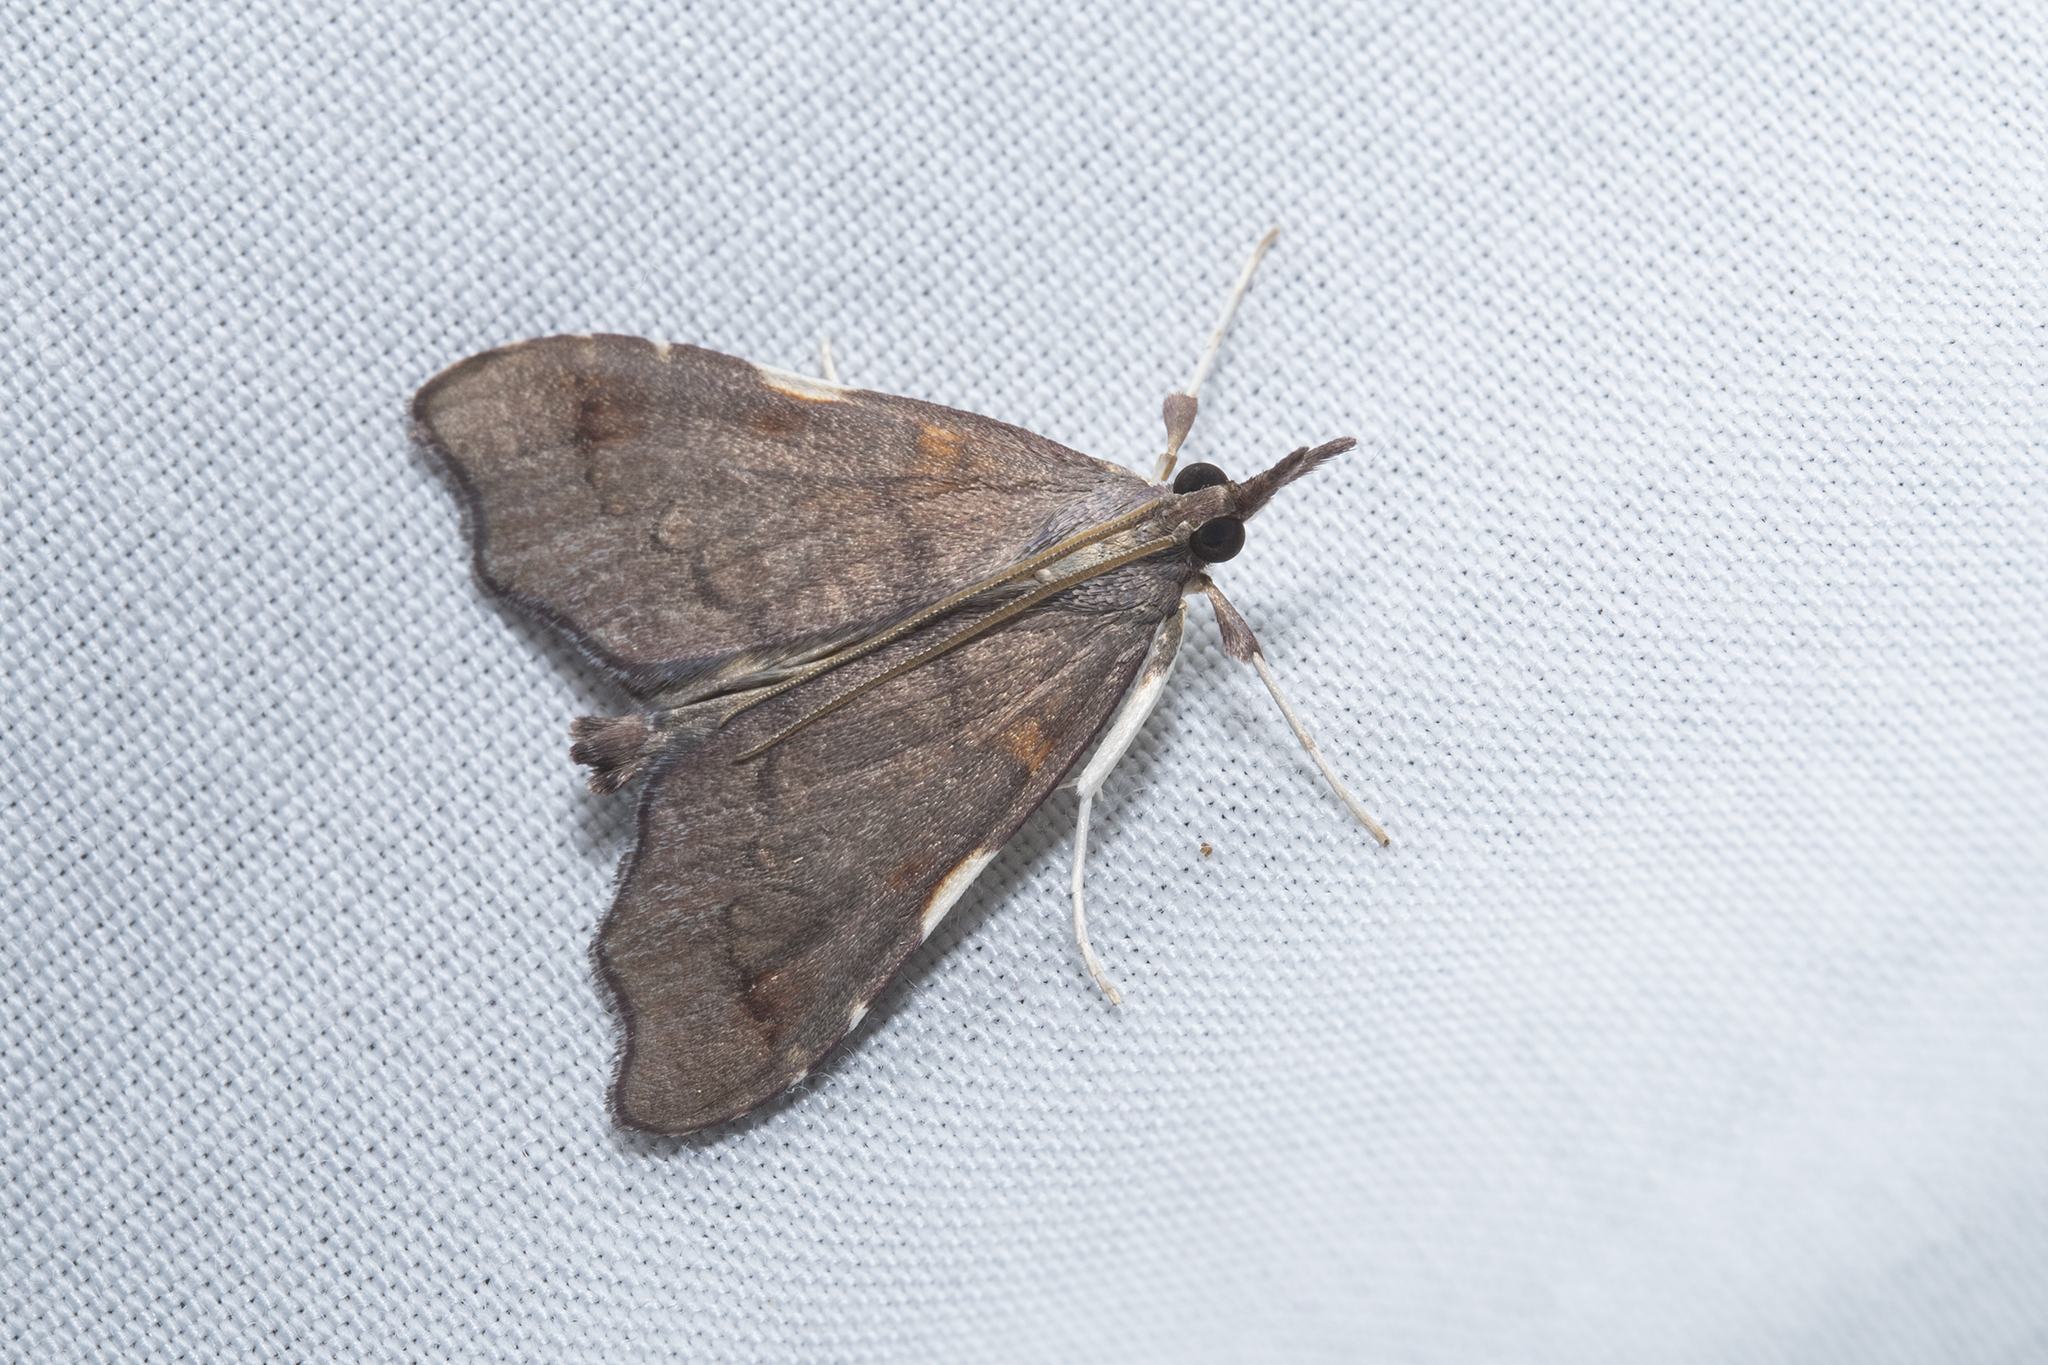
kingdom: Animalia
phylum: Arthropoda
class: Insecta
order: Lepidoptera
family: Crambidae
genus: Deana
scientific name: Deana hybreasalis
